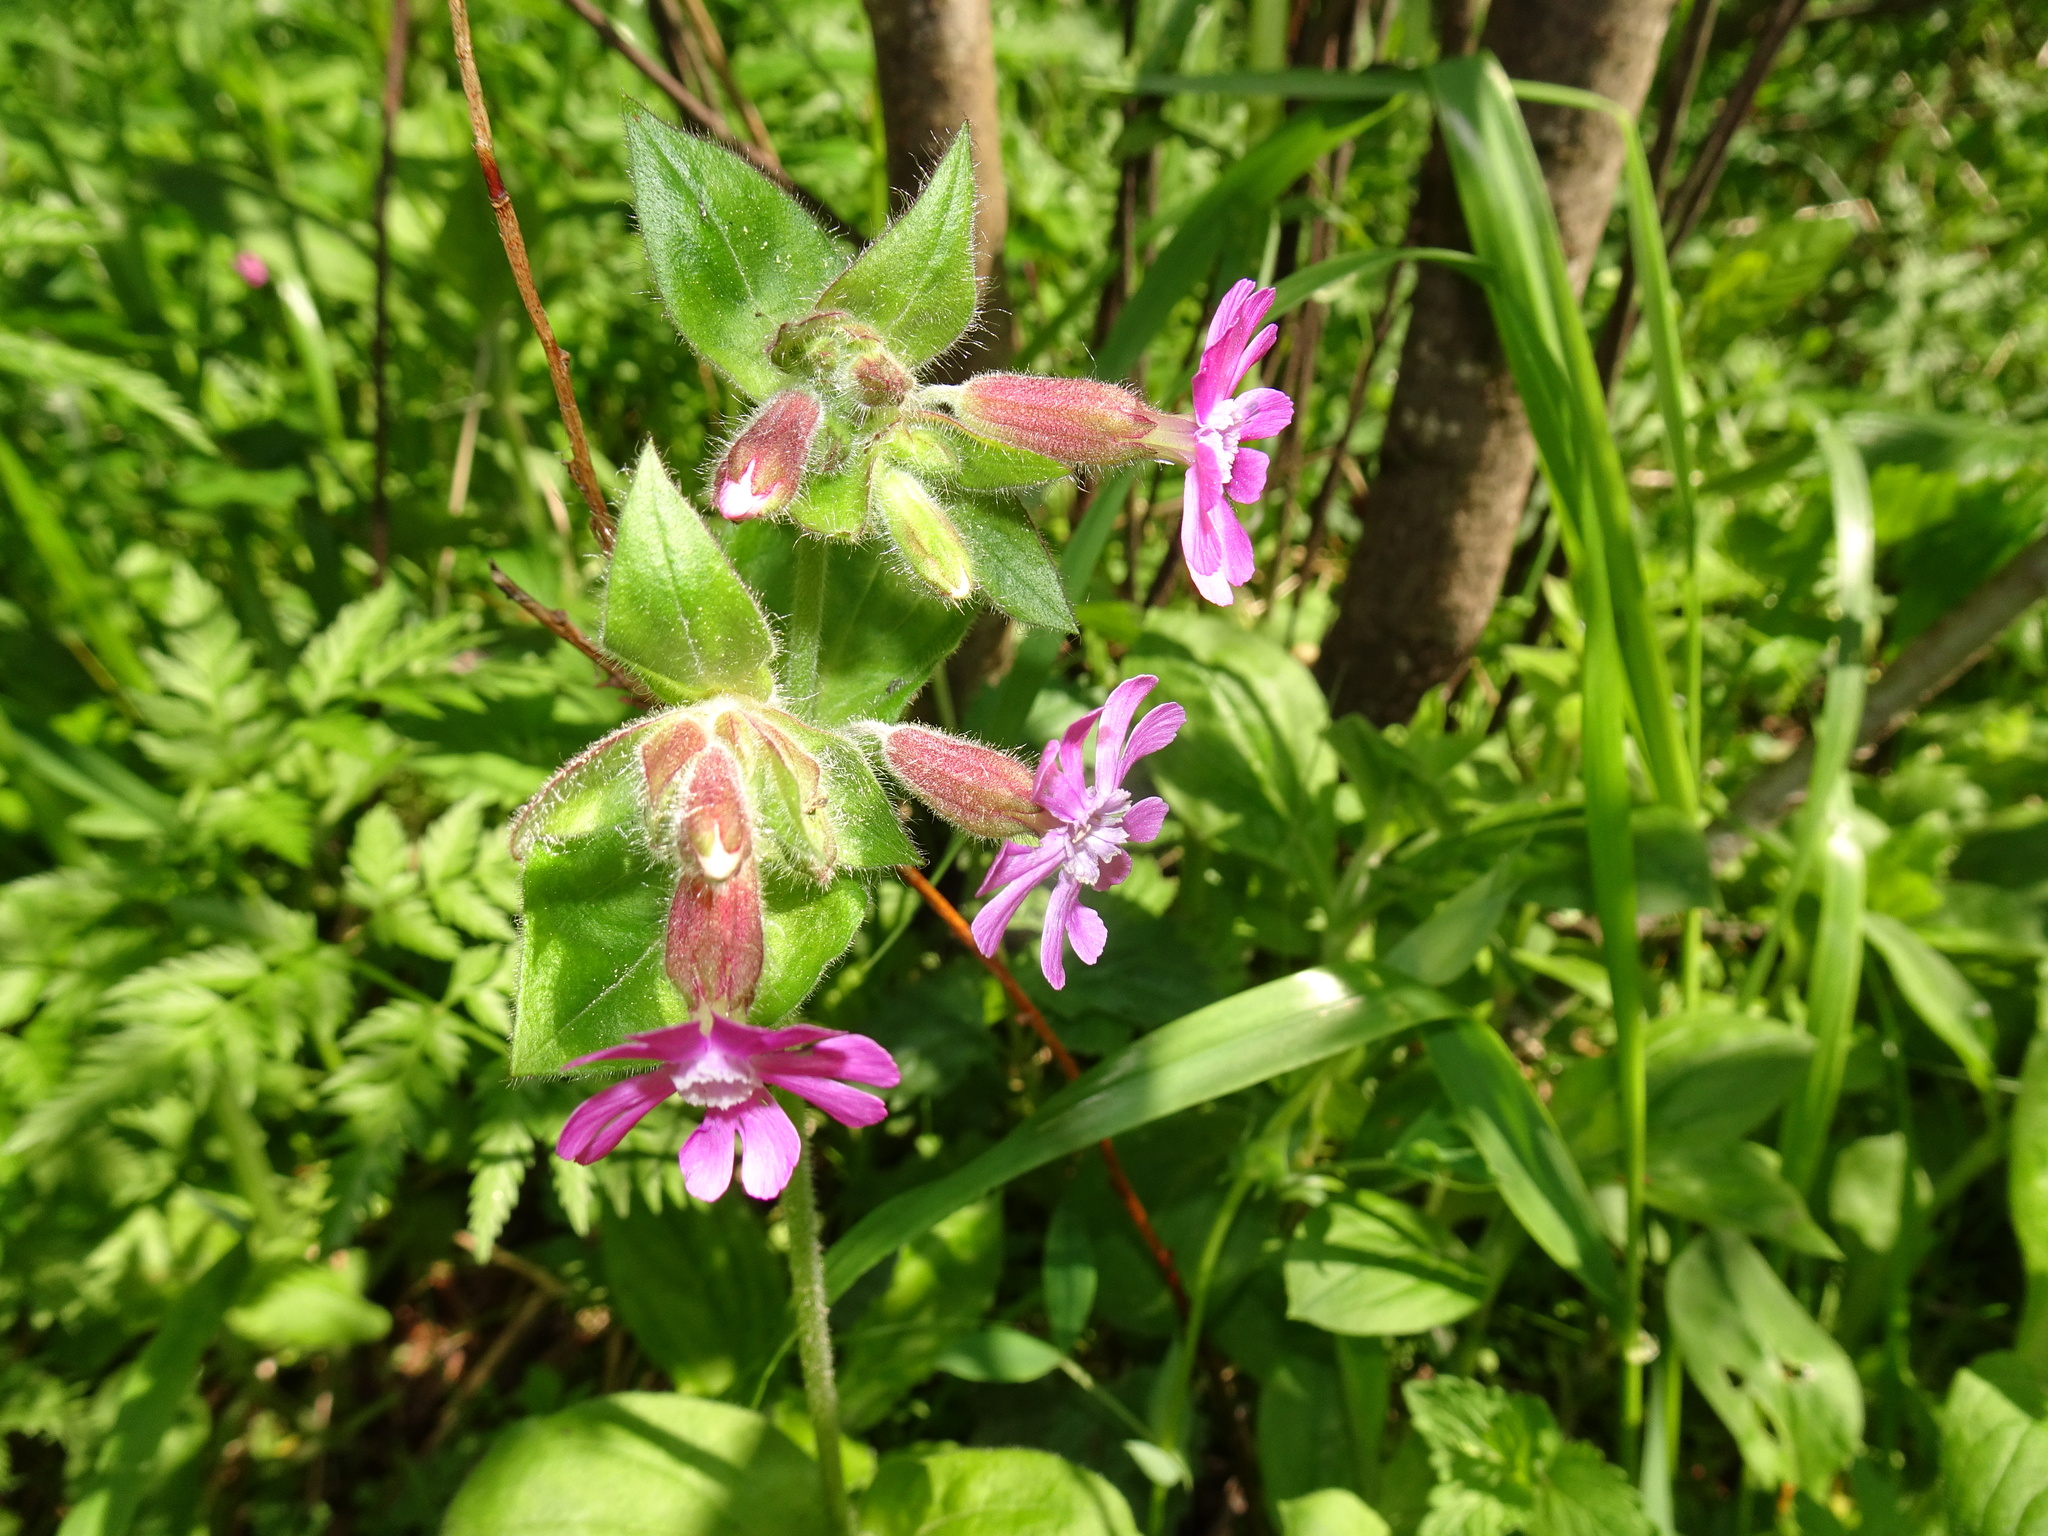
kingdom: Plantae
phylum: Tracheophyta
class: Magnoliopsida
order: Caryophyllales
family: Caryophyllaceae
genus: Silene
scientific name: Silene dioica
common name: Red campion
